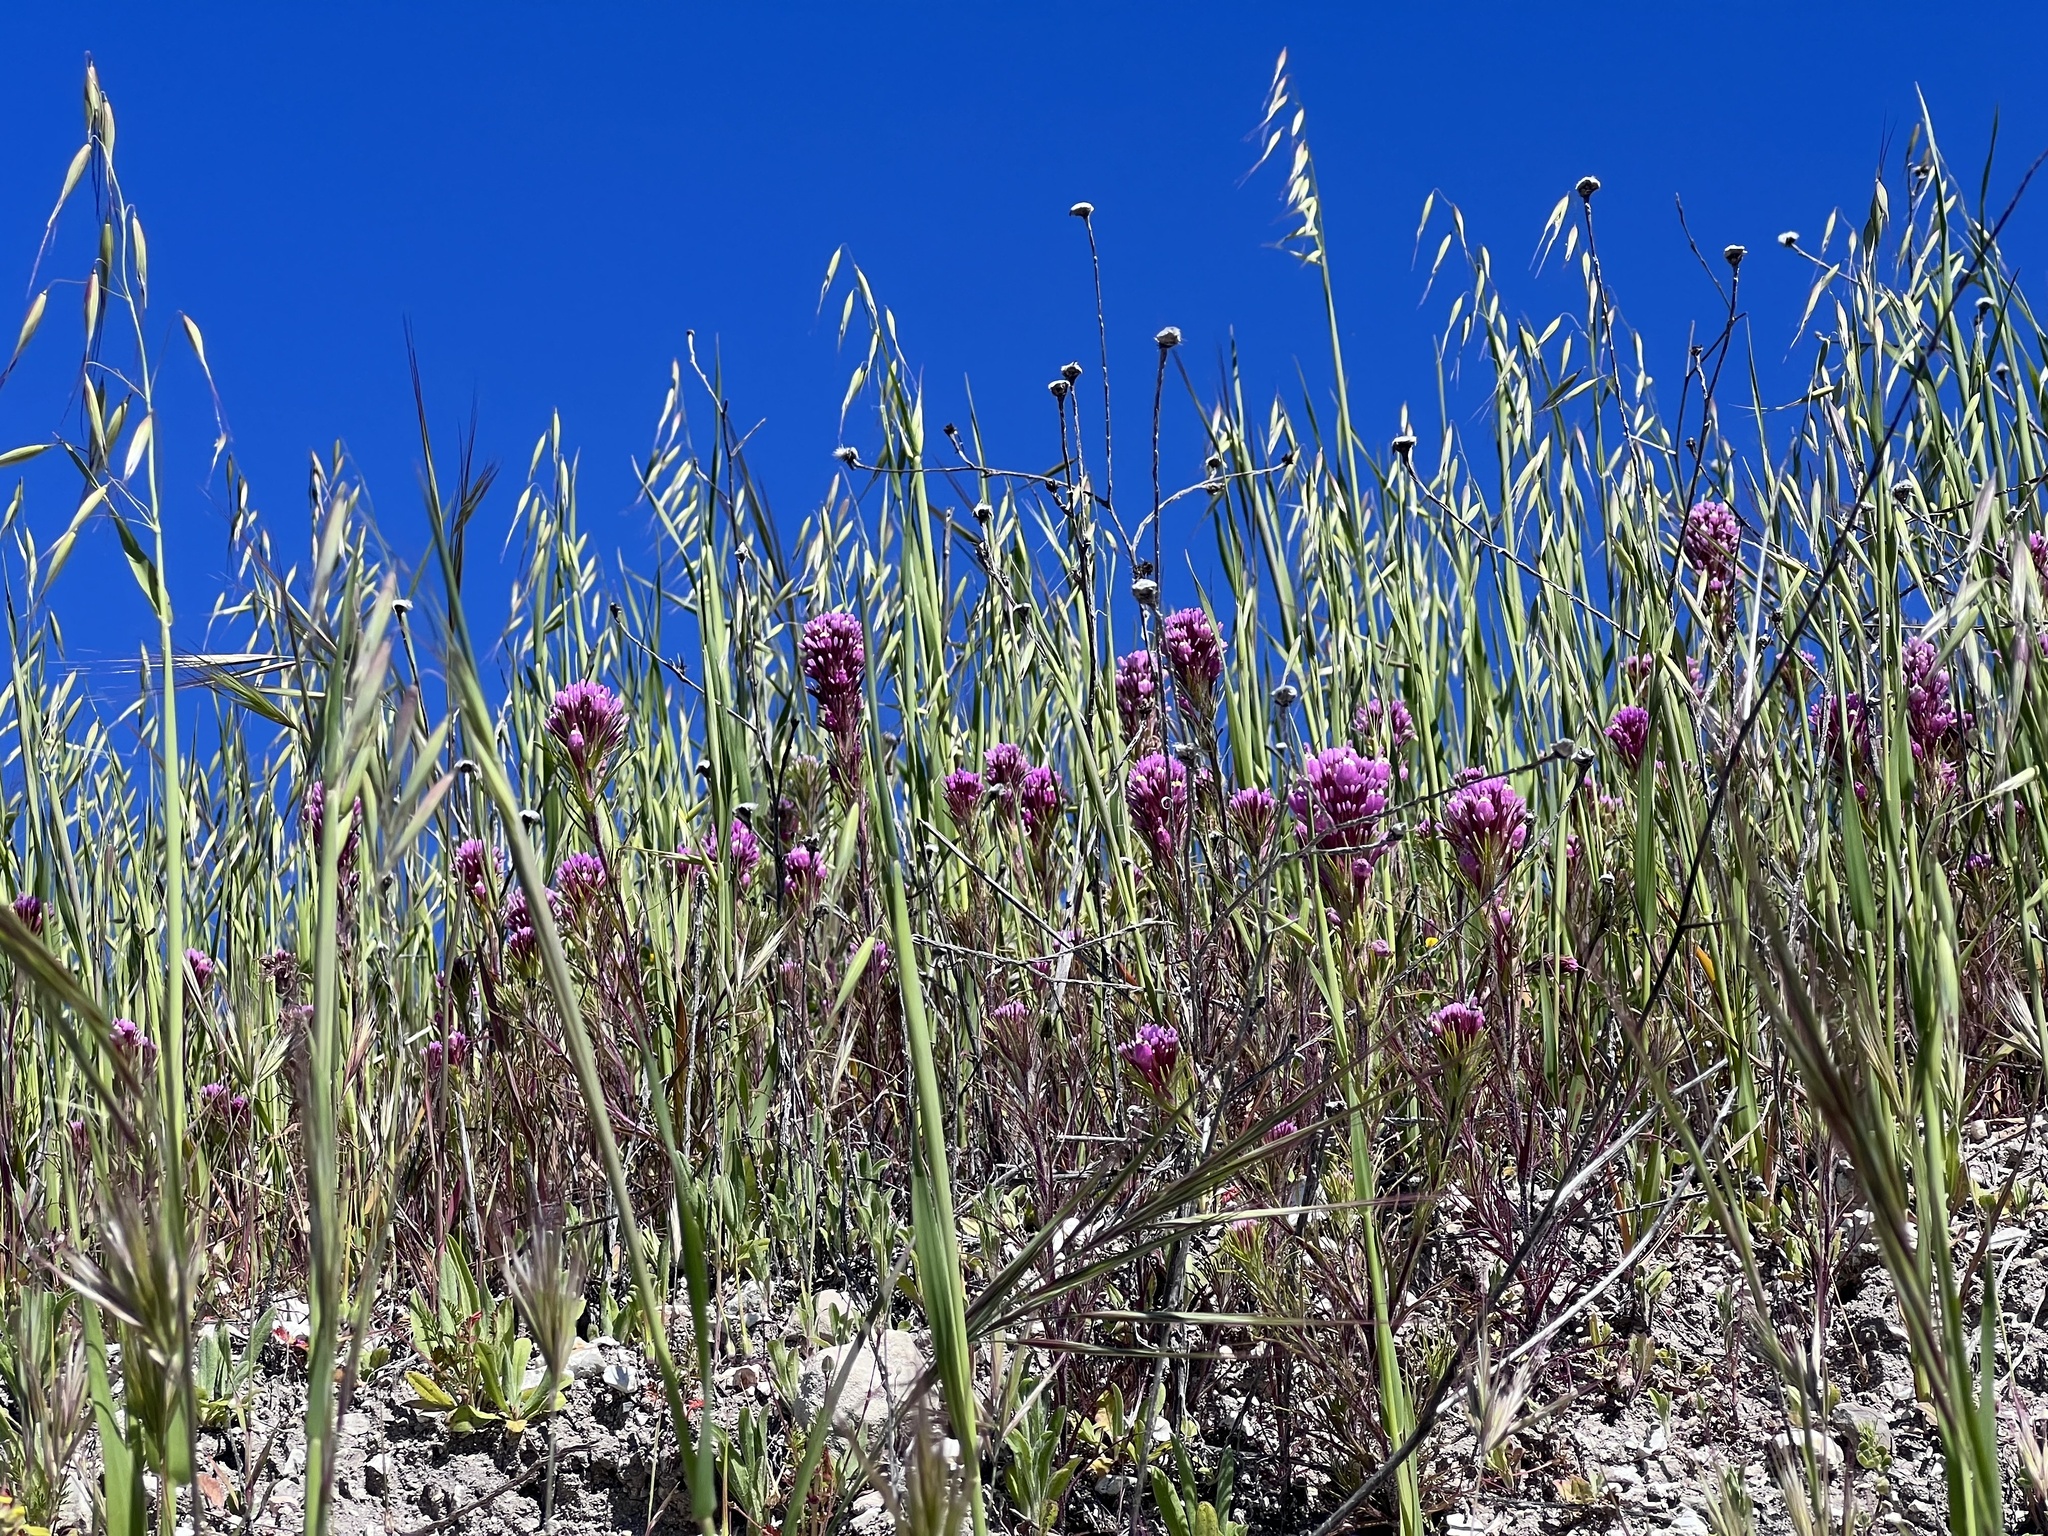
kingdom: Plantae
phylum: Tracheophyta
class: Magnoliopsida
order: Lamiales
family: Orobanchaceae
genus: Castilleja
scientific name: Castilleja exserta
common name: Purple owl-clover
